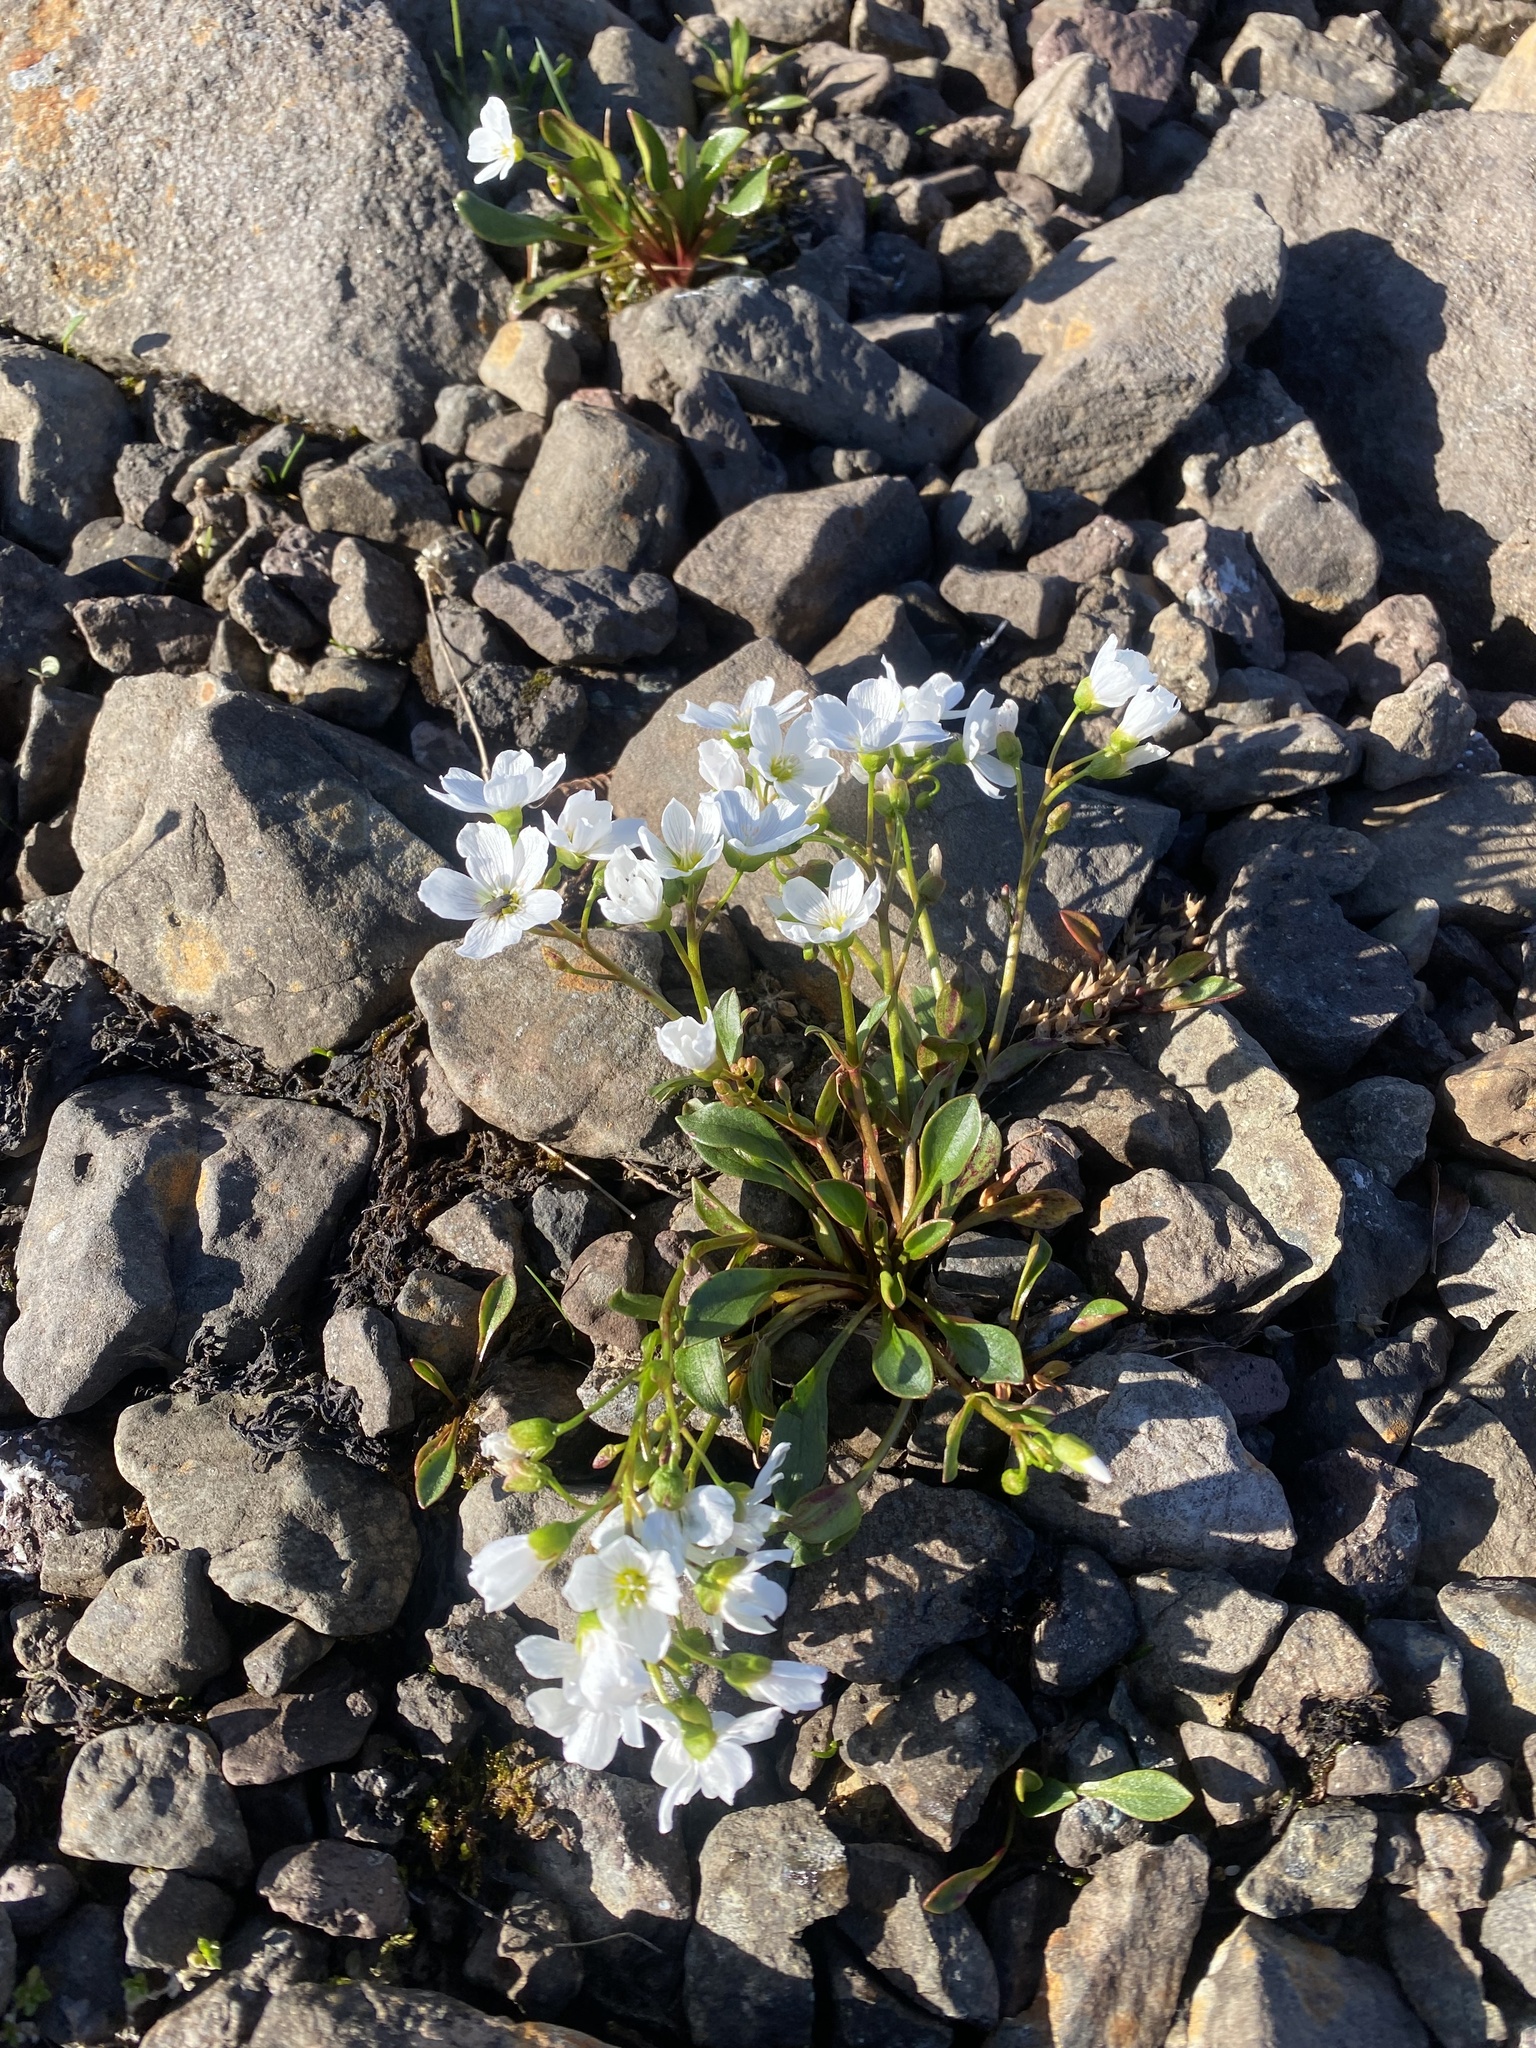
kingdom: Plantae
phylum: Tracheophyta
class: Magnoliopsida
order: Caryophyllales
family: Montiaceae
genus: Claytonia
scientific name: Claytonia joanneana
